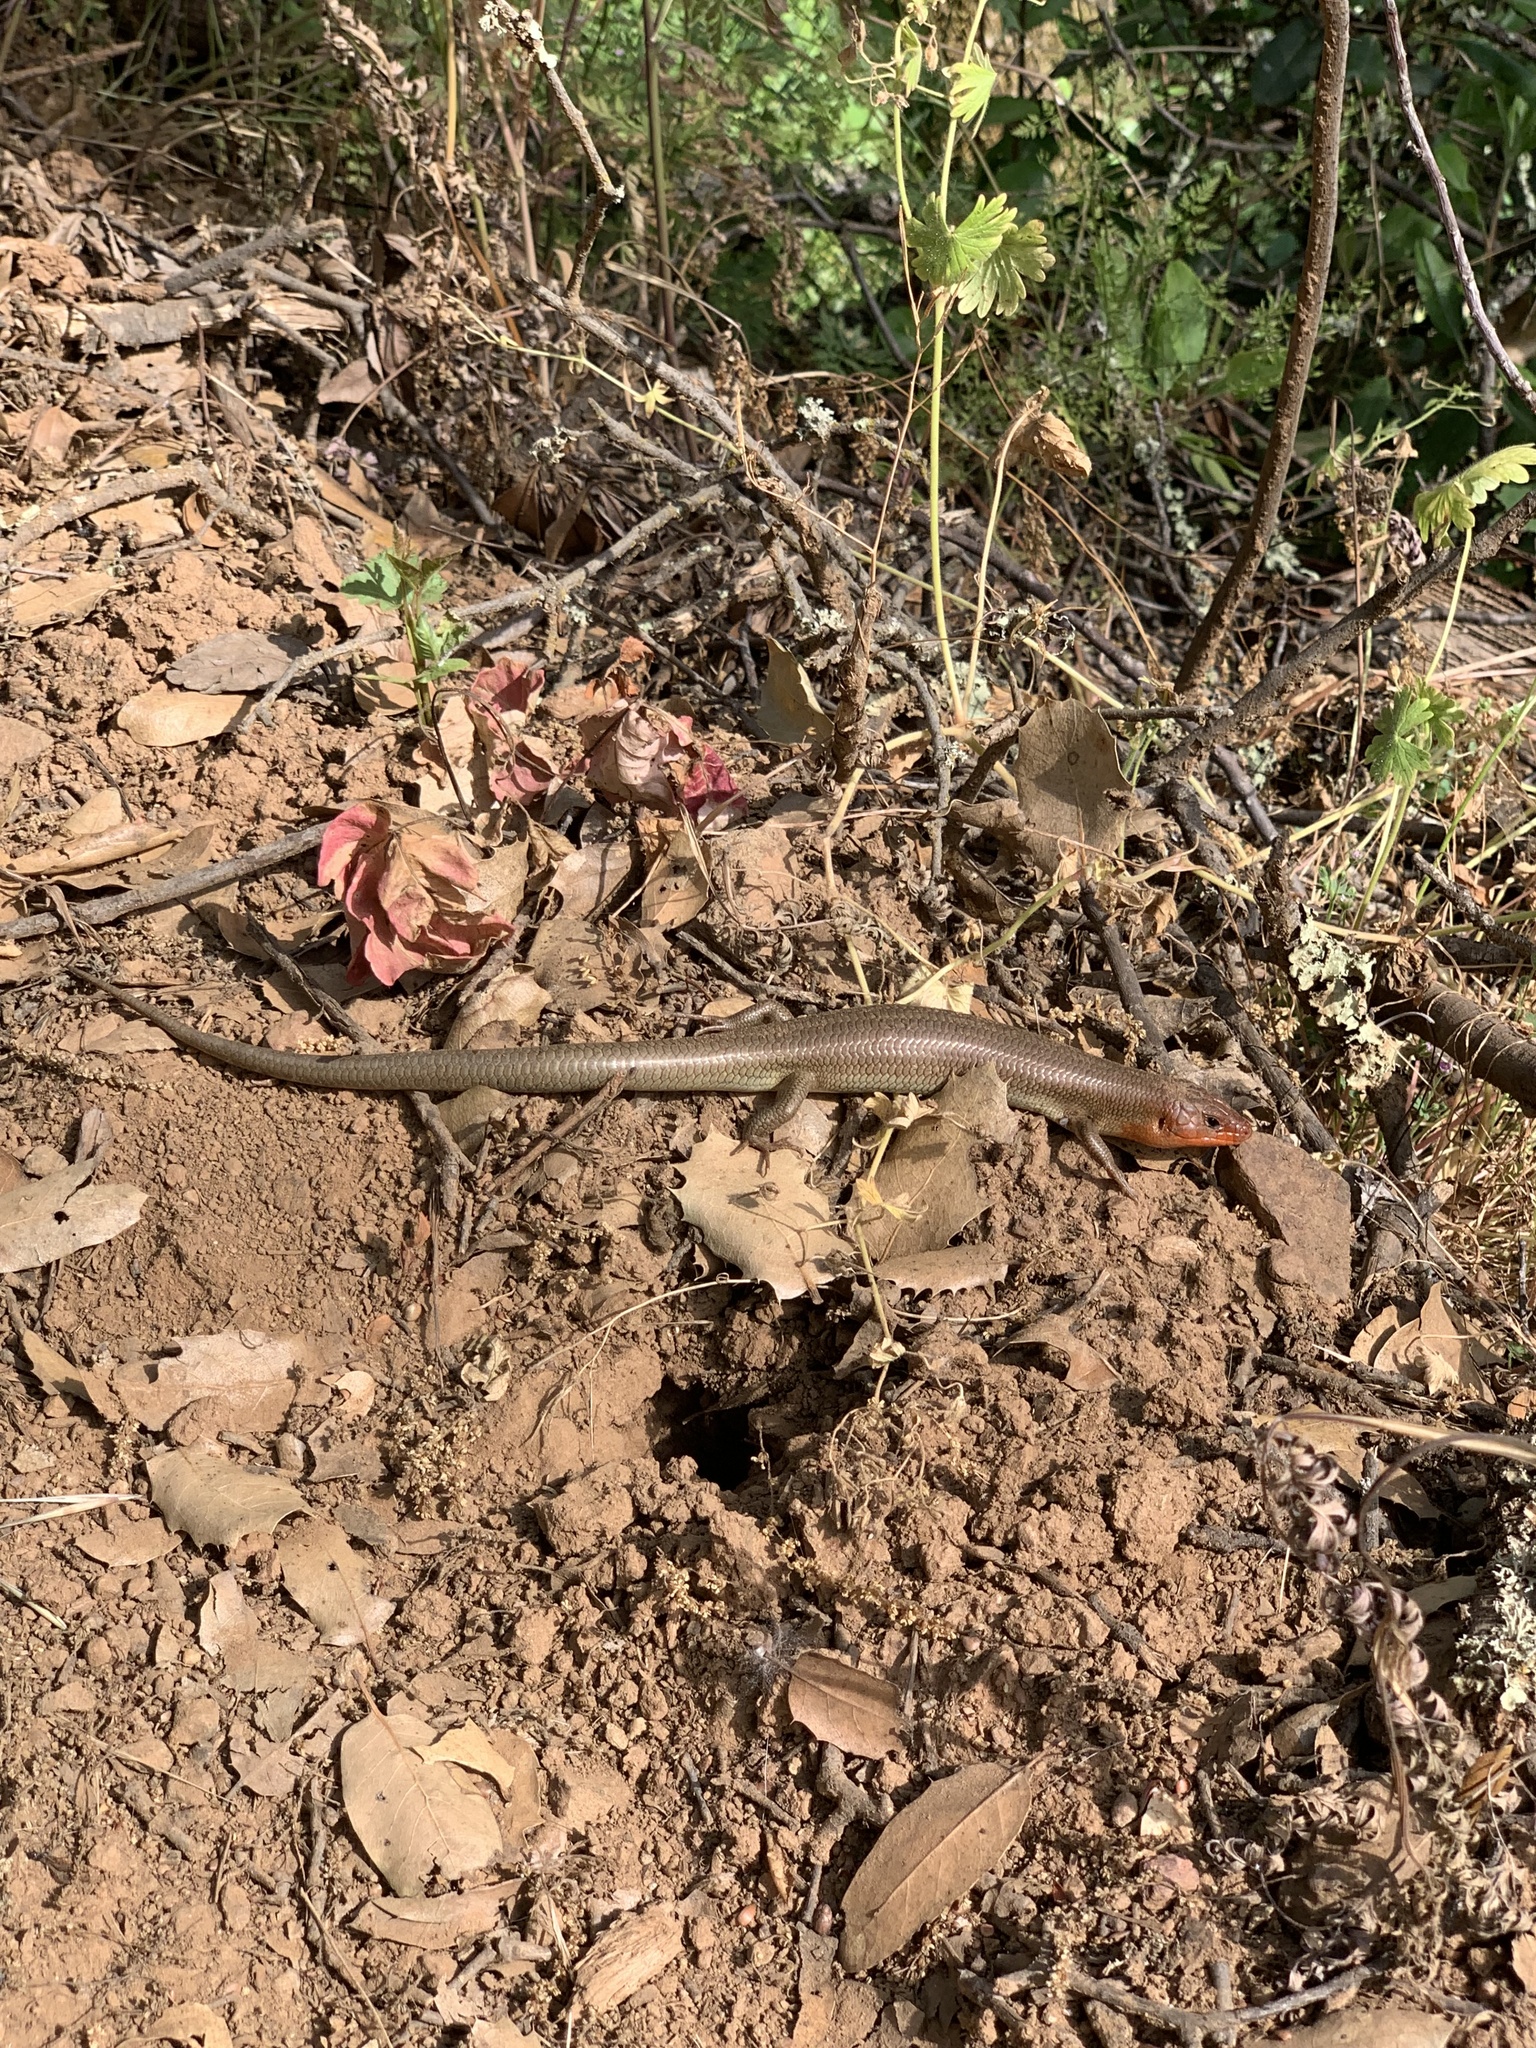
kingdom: Animalia
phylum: Chordata
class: Squamata
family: Scincidae
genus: Plestiodon
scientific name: Plestiodon gilberti
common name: Gilbert's skink
